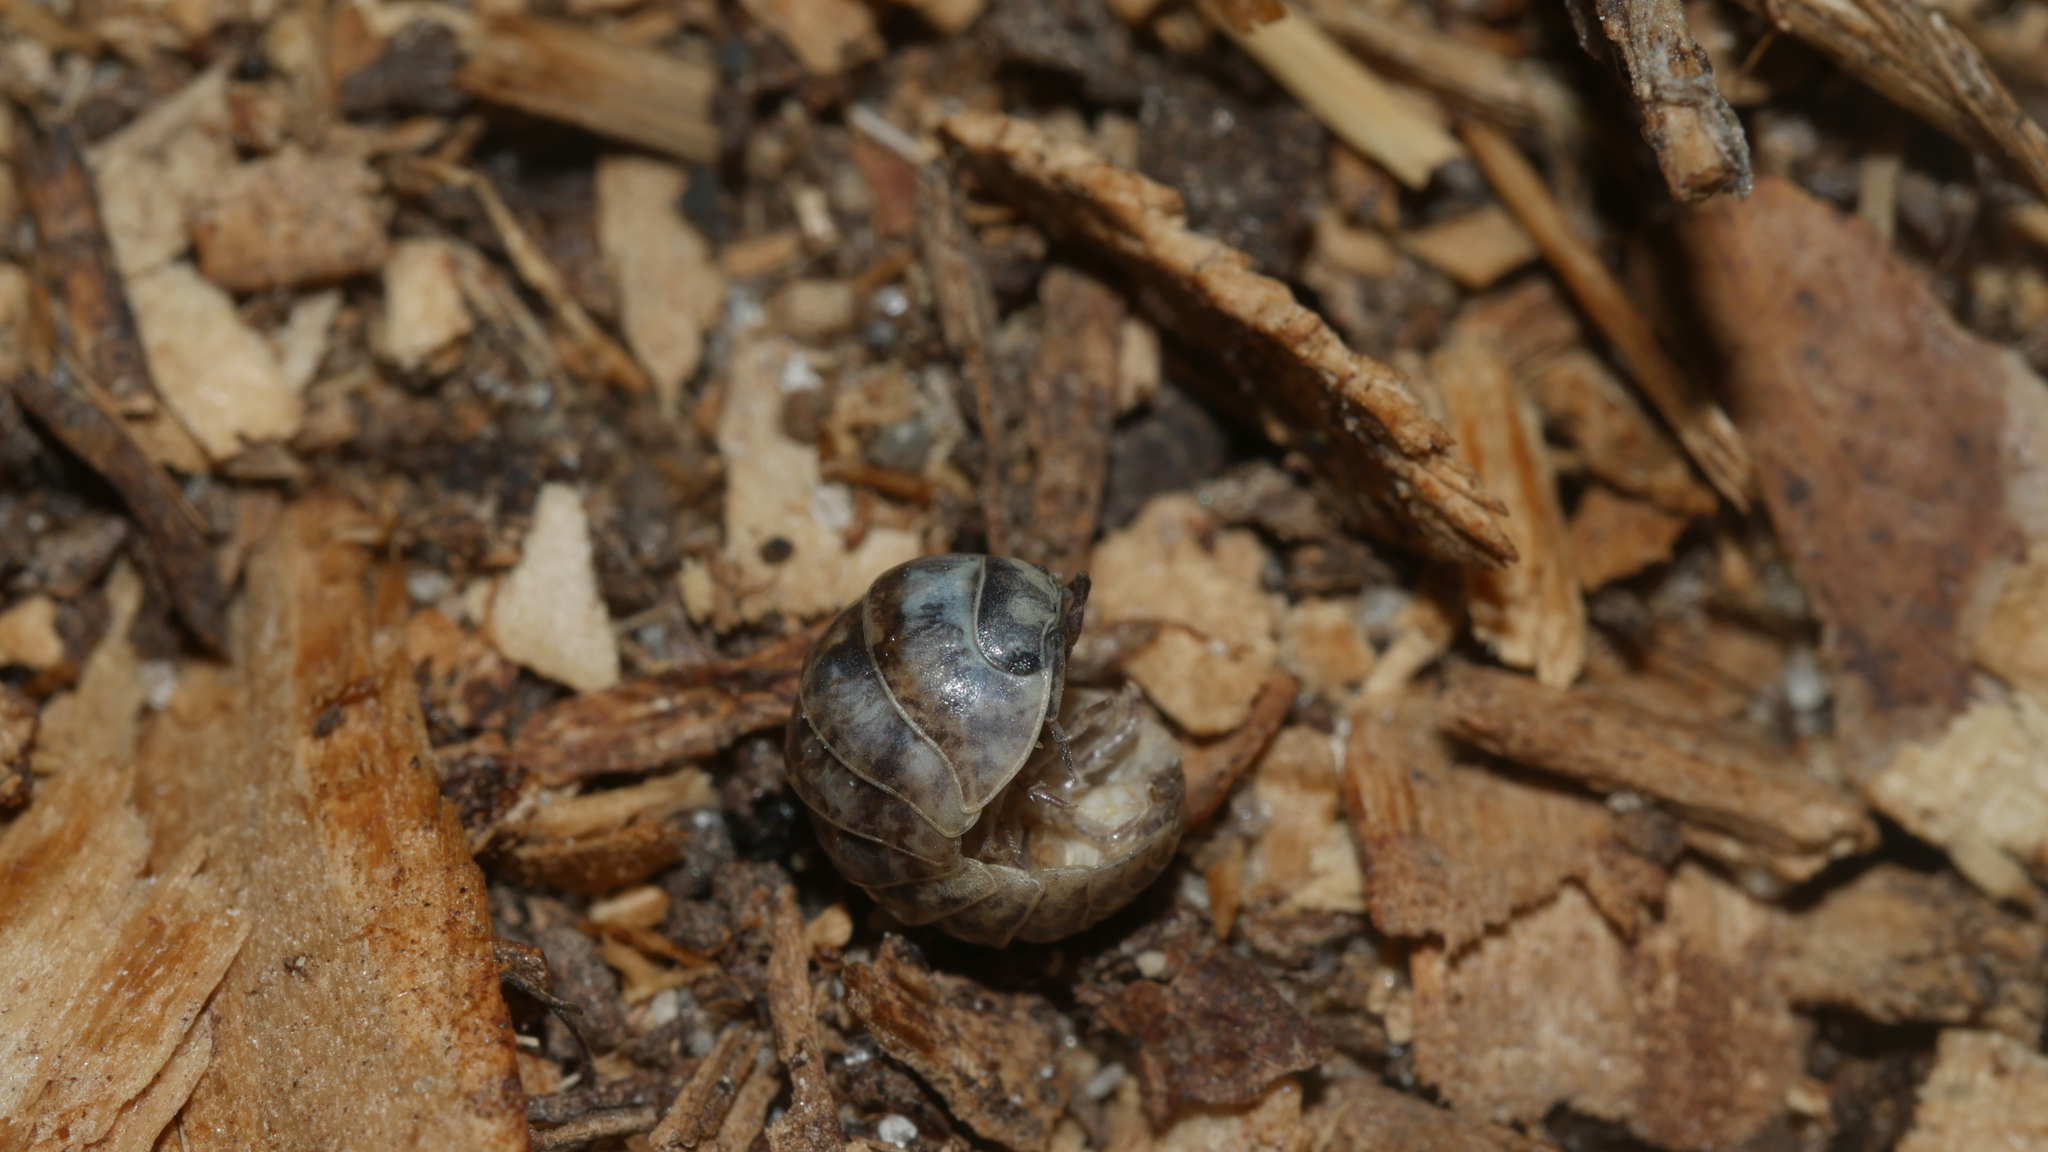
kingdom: Animalia
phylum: Arthropoda
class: Malacostraca
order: Isopoda
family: Armadillidiidae
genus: Armadillidium
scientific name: Armadillidium vulgare
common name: Common pill woodlouse
